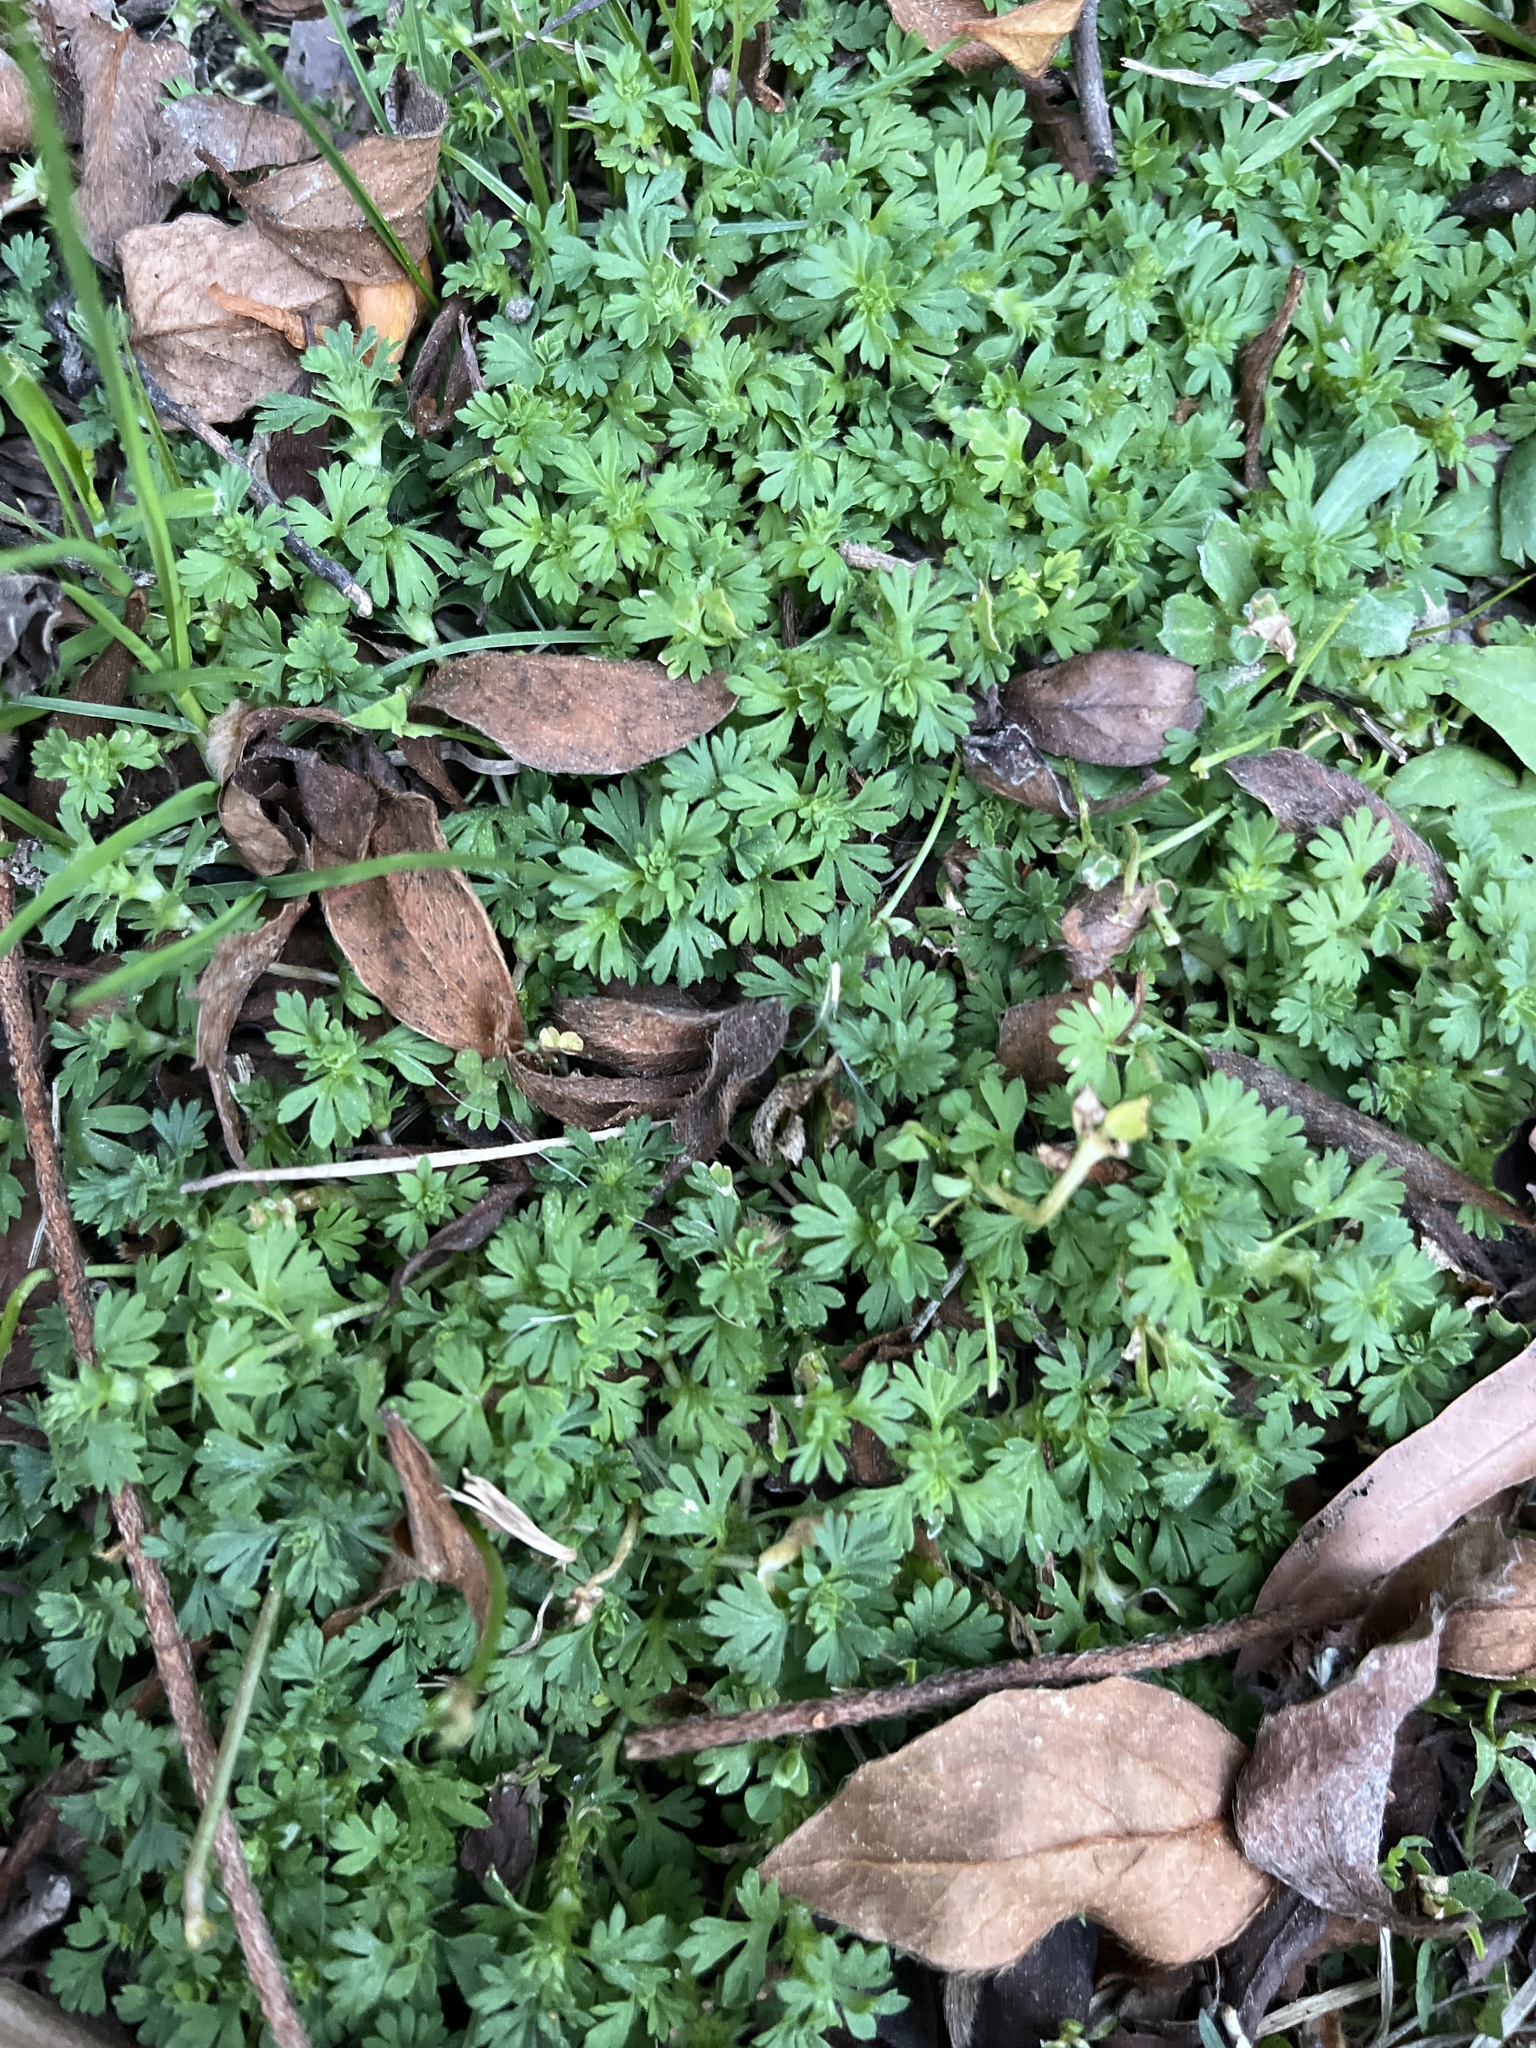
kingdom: Plantae
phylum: Tracheophyta
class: Magnoliopsida
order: Rosales
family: Rosaceae
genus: Aphanes
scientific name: Aphanes australis
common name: Slender parsley-piert
